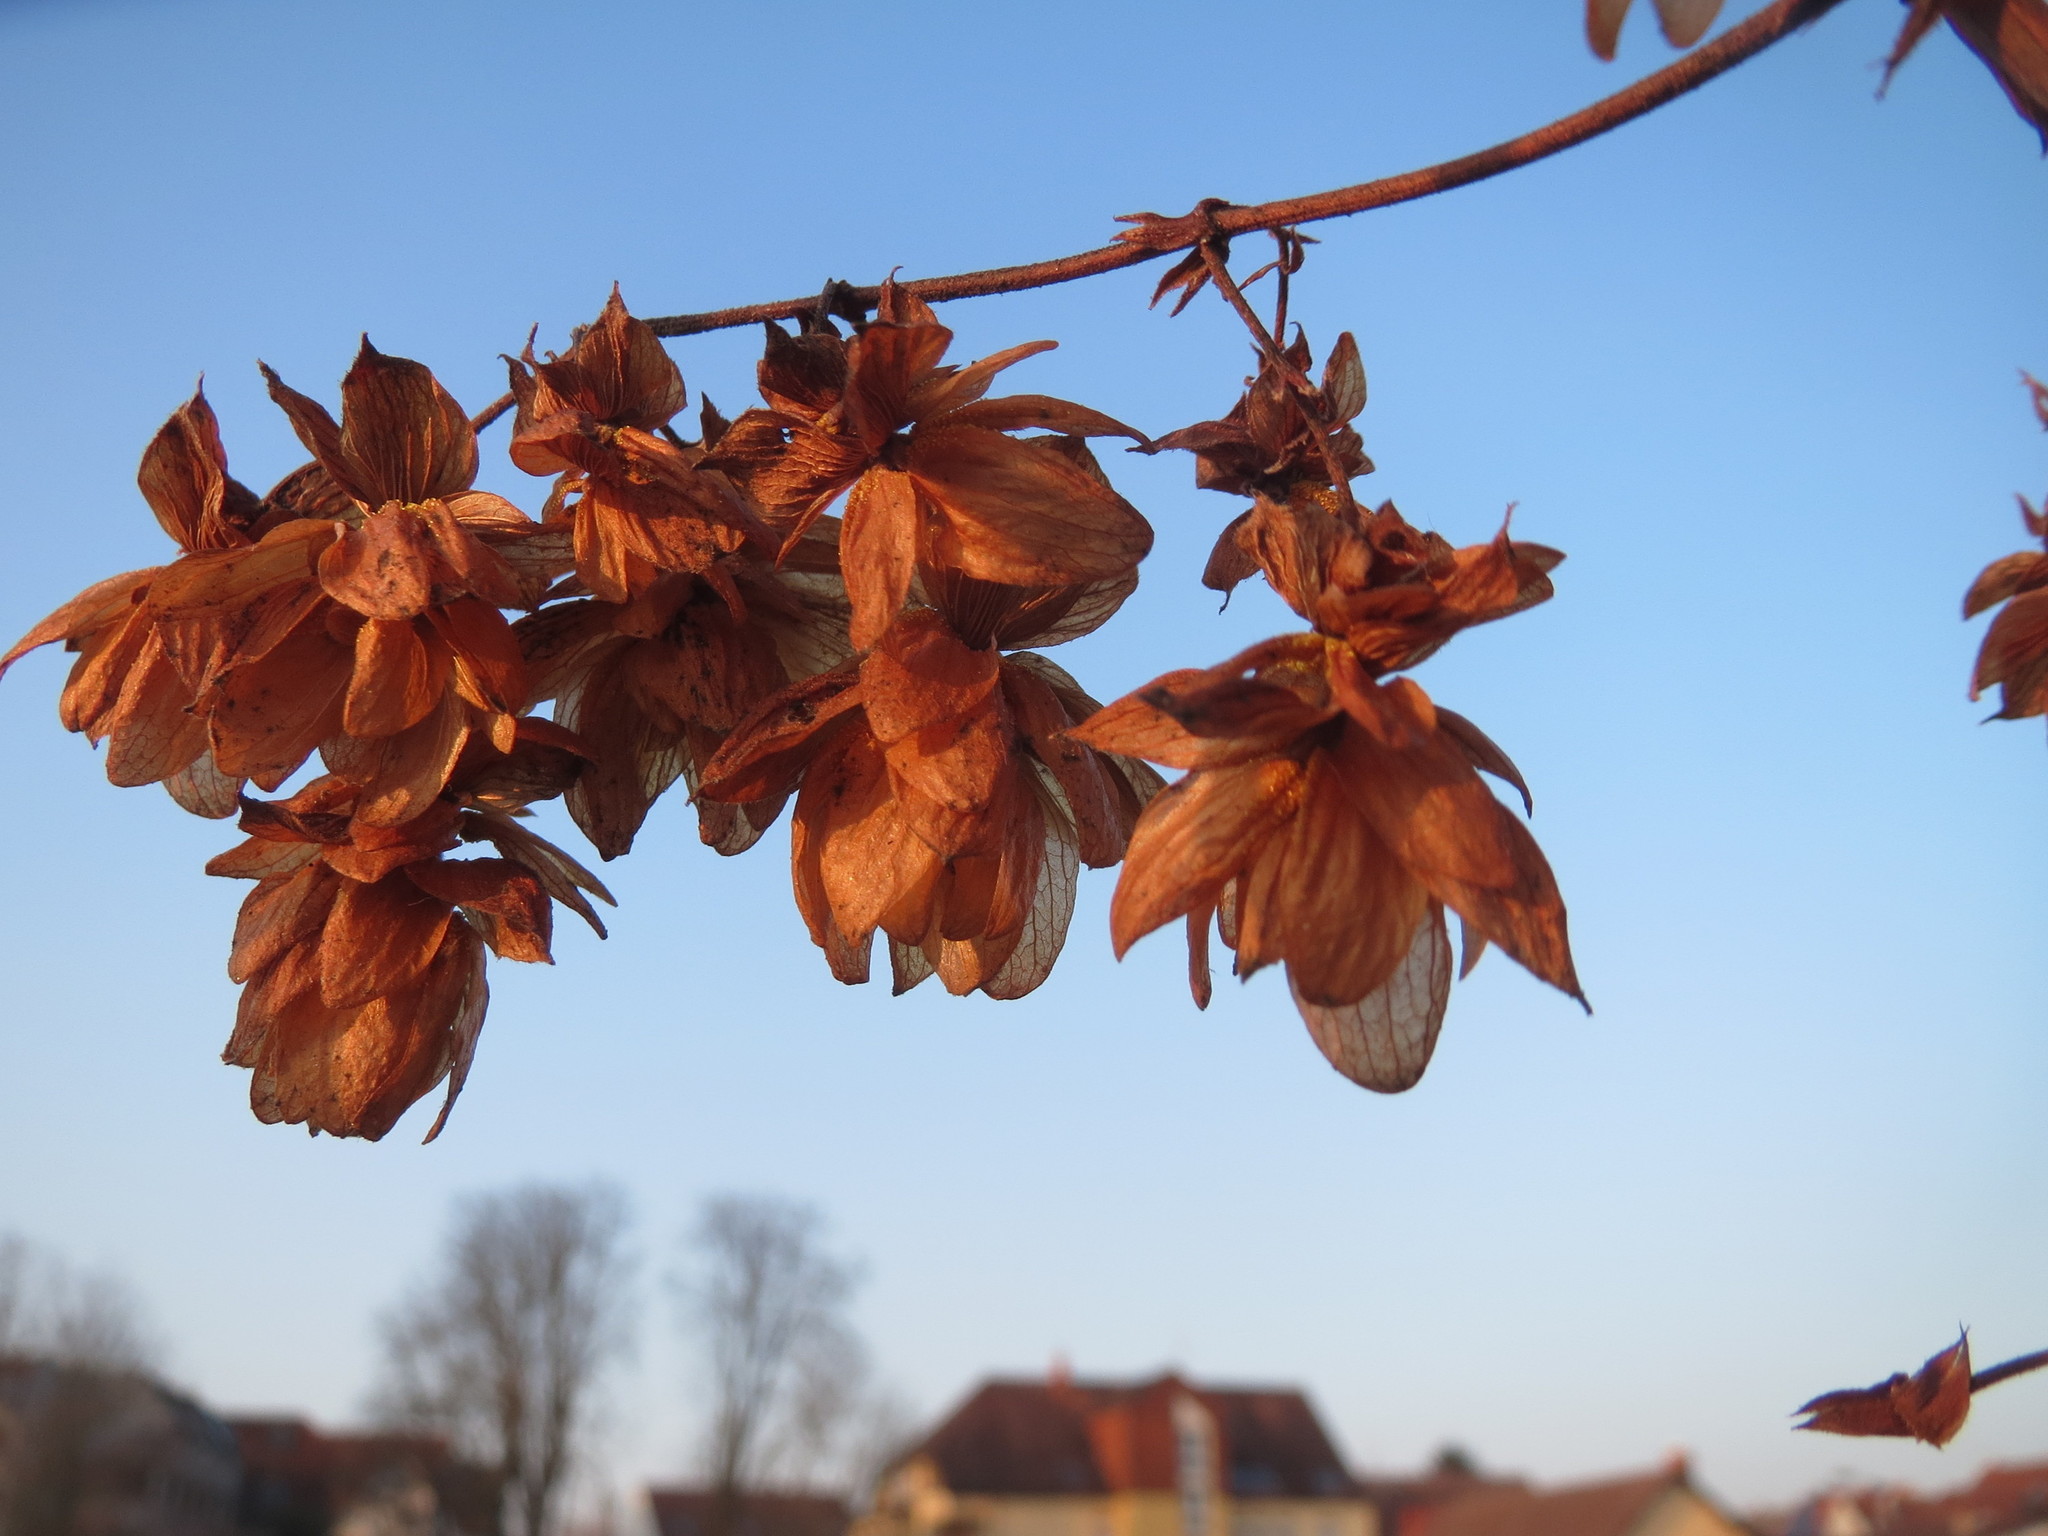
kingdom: Plantae
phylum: Tracheophyta
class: Magnoliopsida
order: Rosales
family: Cannabaceae
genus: Humulus
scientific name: Humulus lupulus
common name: Hop
